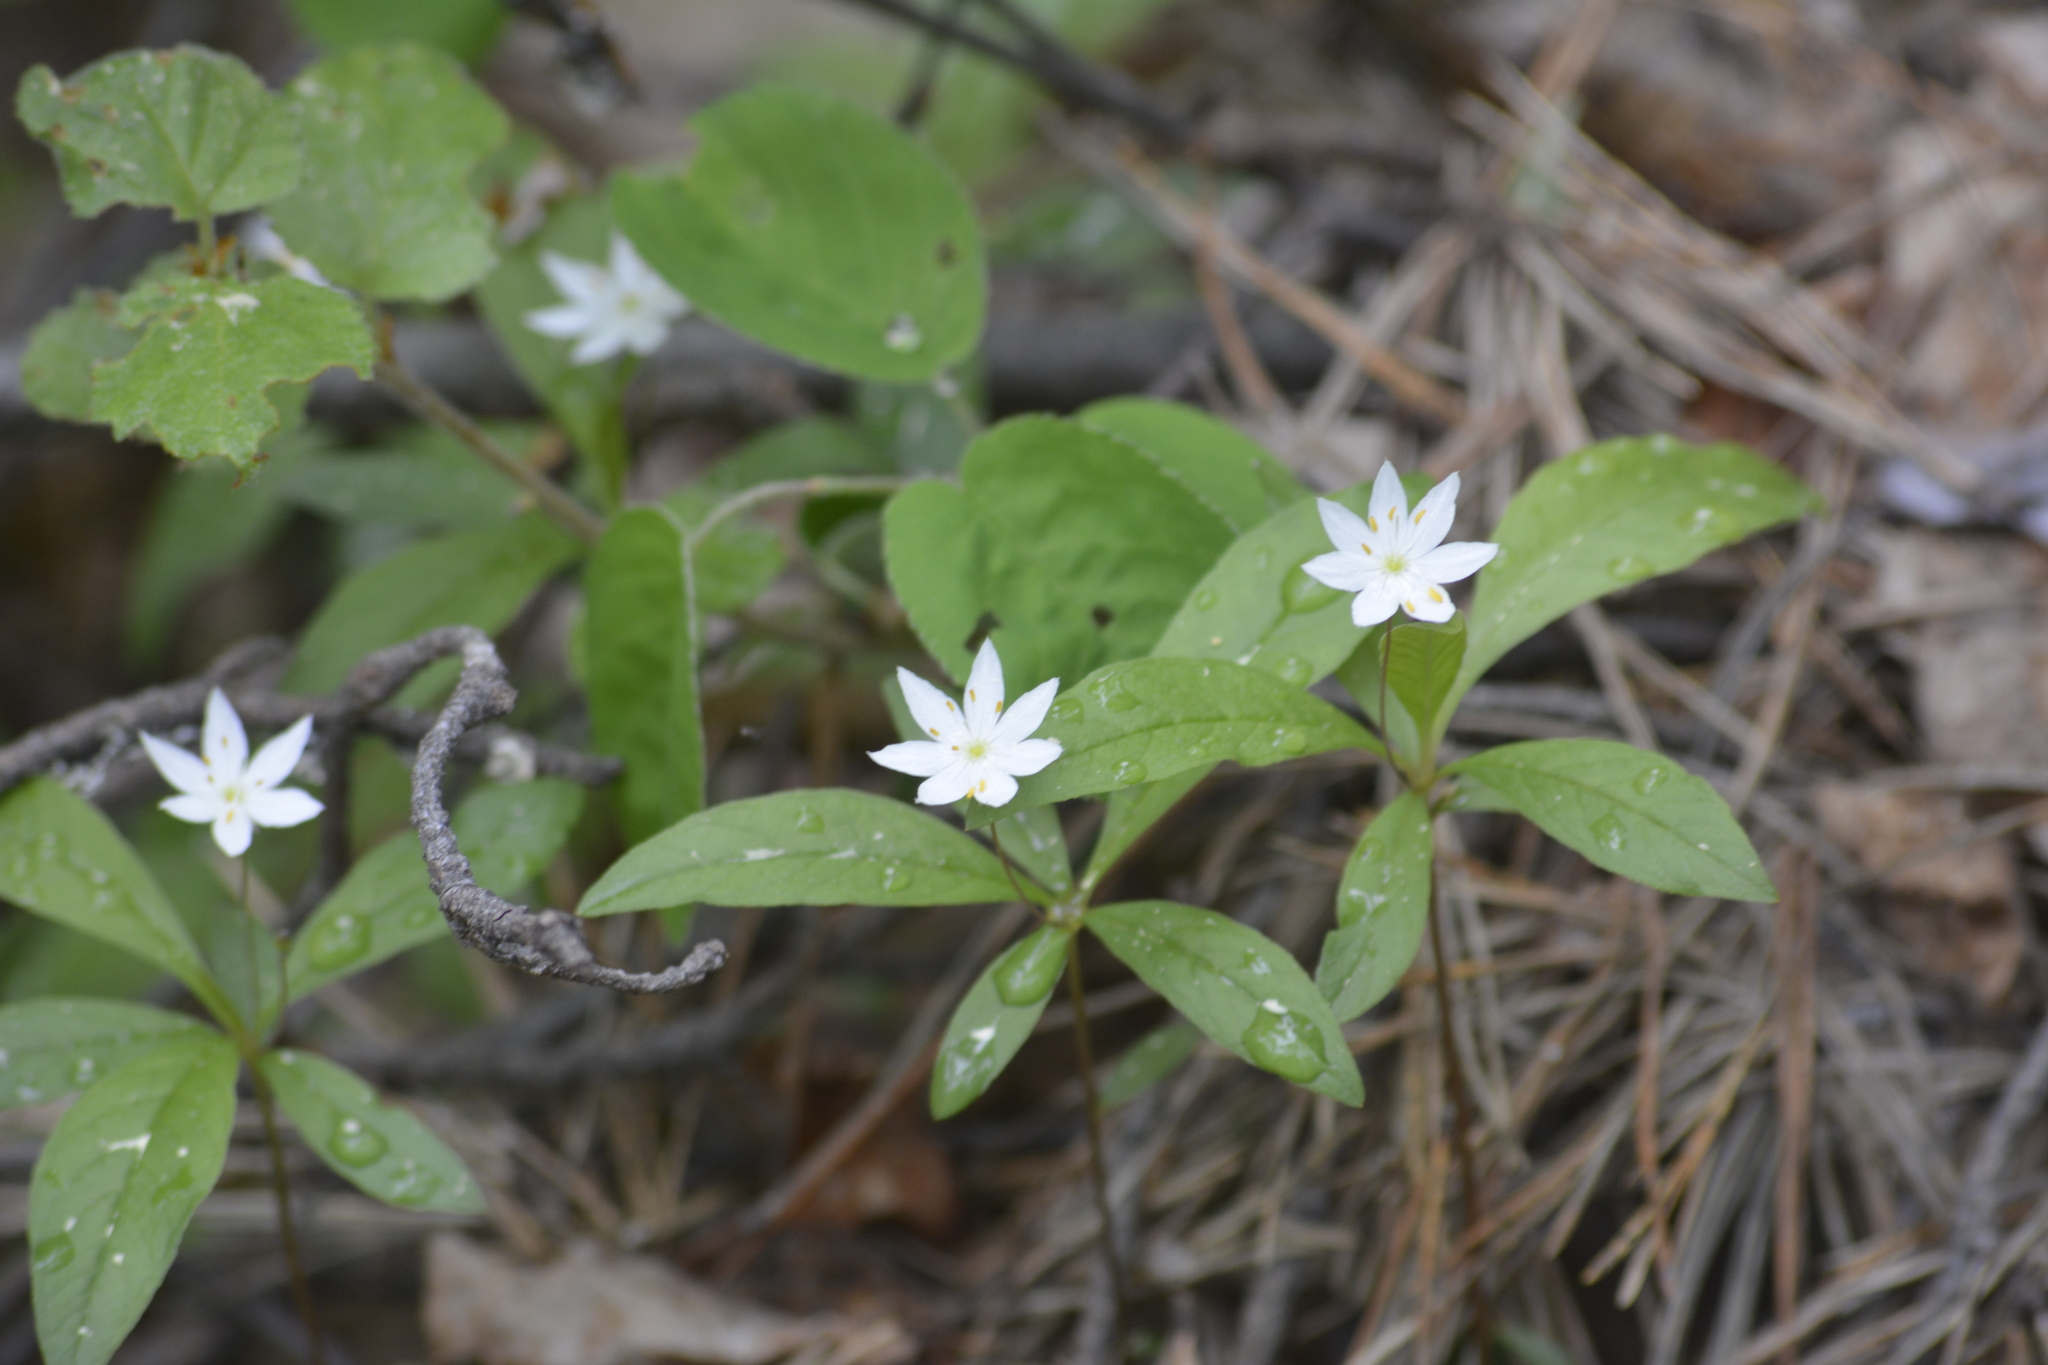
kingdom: Plantae
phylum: Tracheophyta
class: Magnoliopsida
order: Ericales
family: Primulaceae
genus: Lysimachia
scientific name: Lysimachia europaea
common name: Arctic starflower
